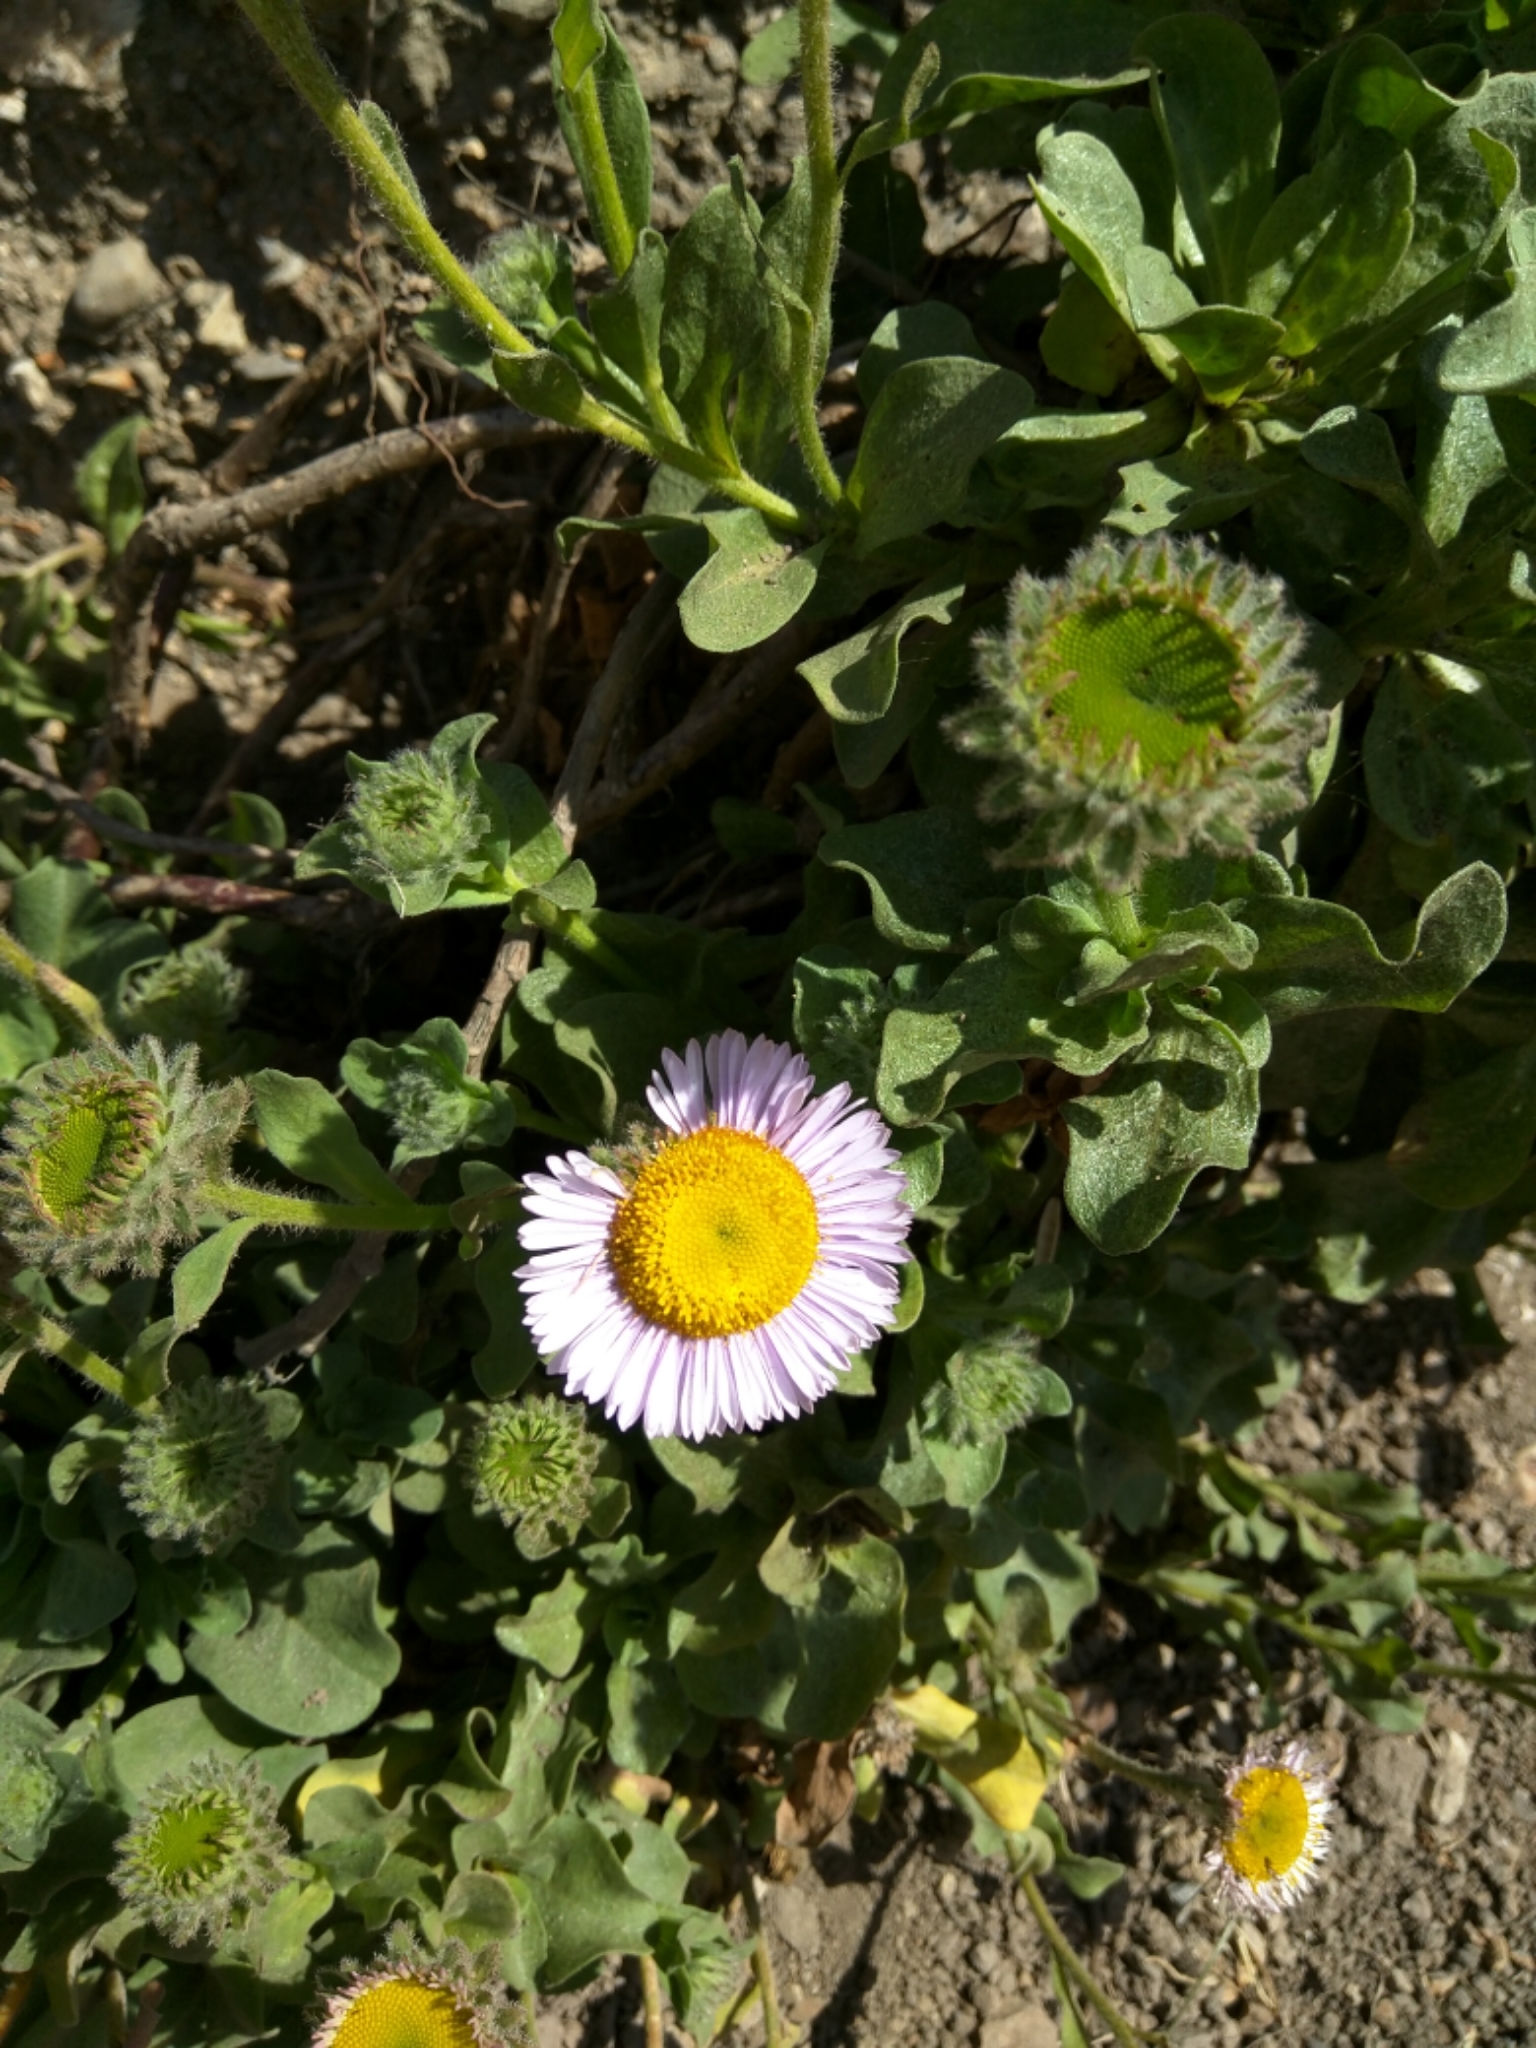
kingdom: Plantae
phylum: Tracheophyta
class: Magnoliopsida
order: Asterales
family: Asteraceae
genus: Erigeron
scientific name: Erigeron glaucus
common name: Seaside daisy
